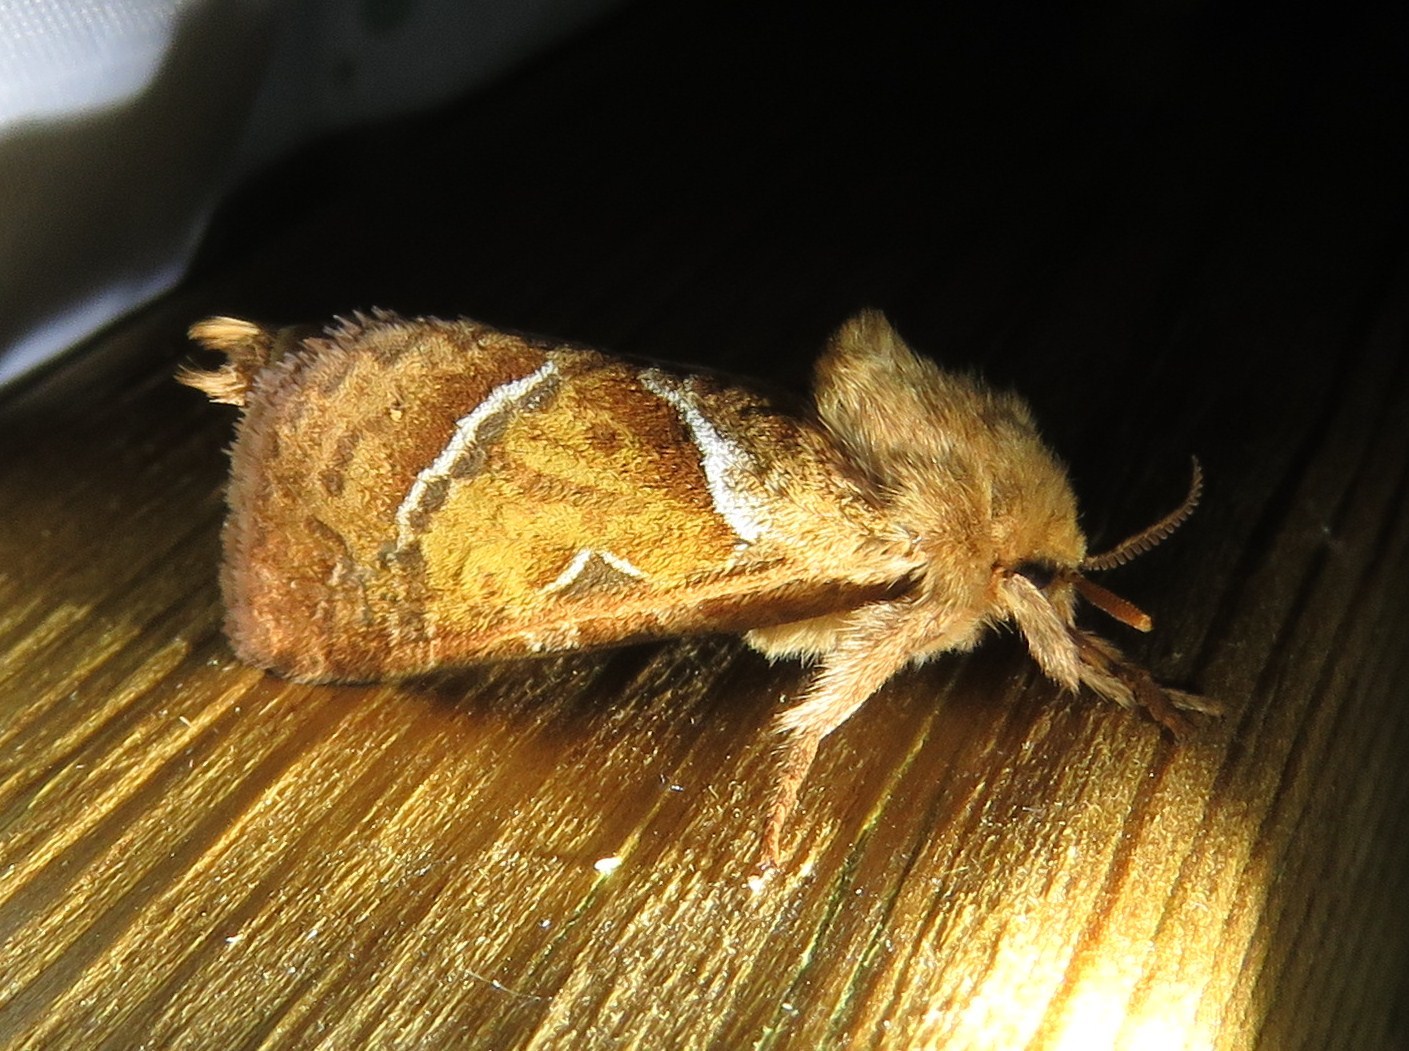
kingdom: Animalia
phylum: Arthropoda
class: Insecta
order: Lepidoptera
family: Hepialidae
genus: Triodia
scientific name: Triodia sylvina
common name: Orange swift
